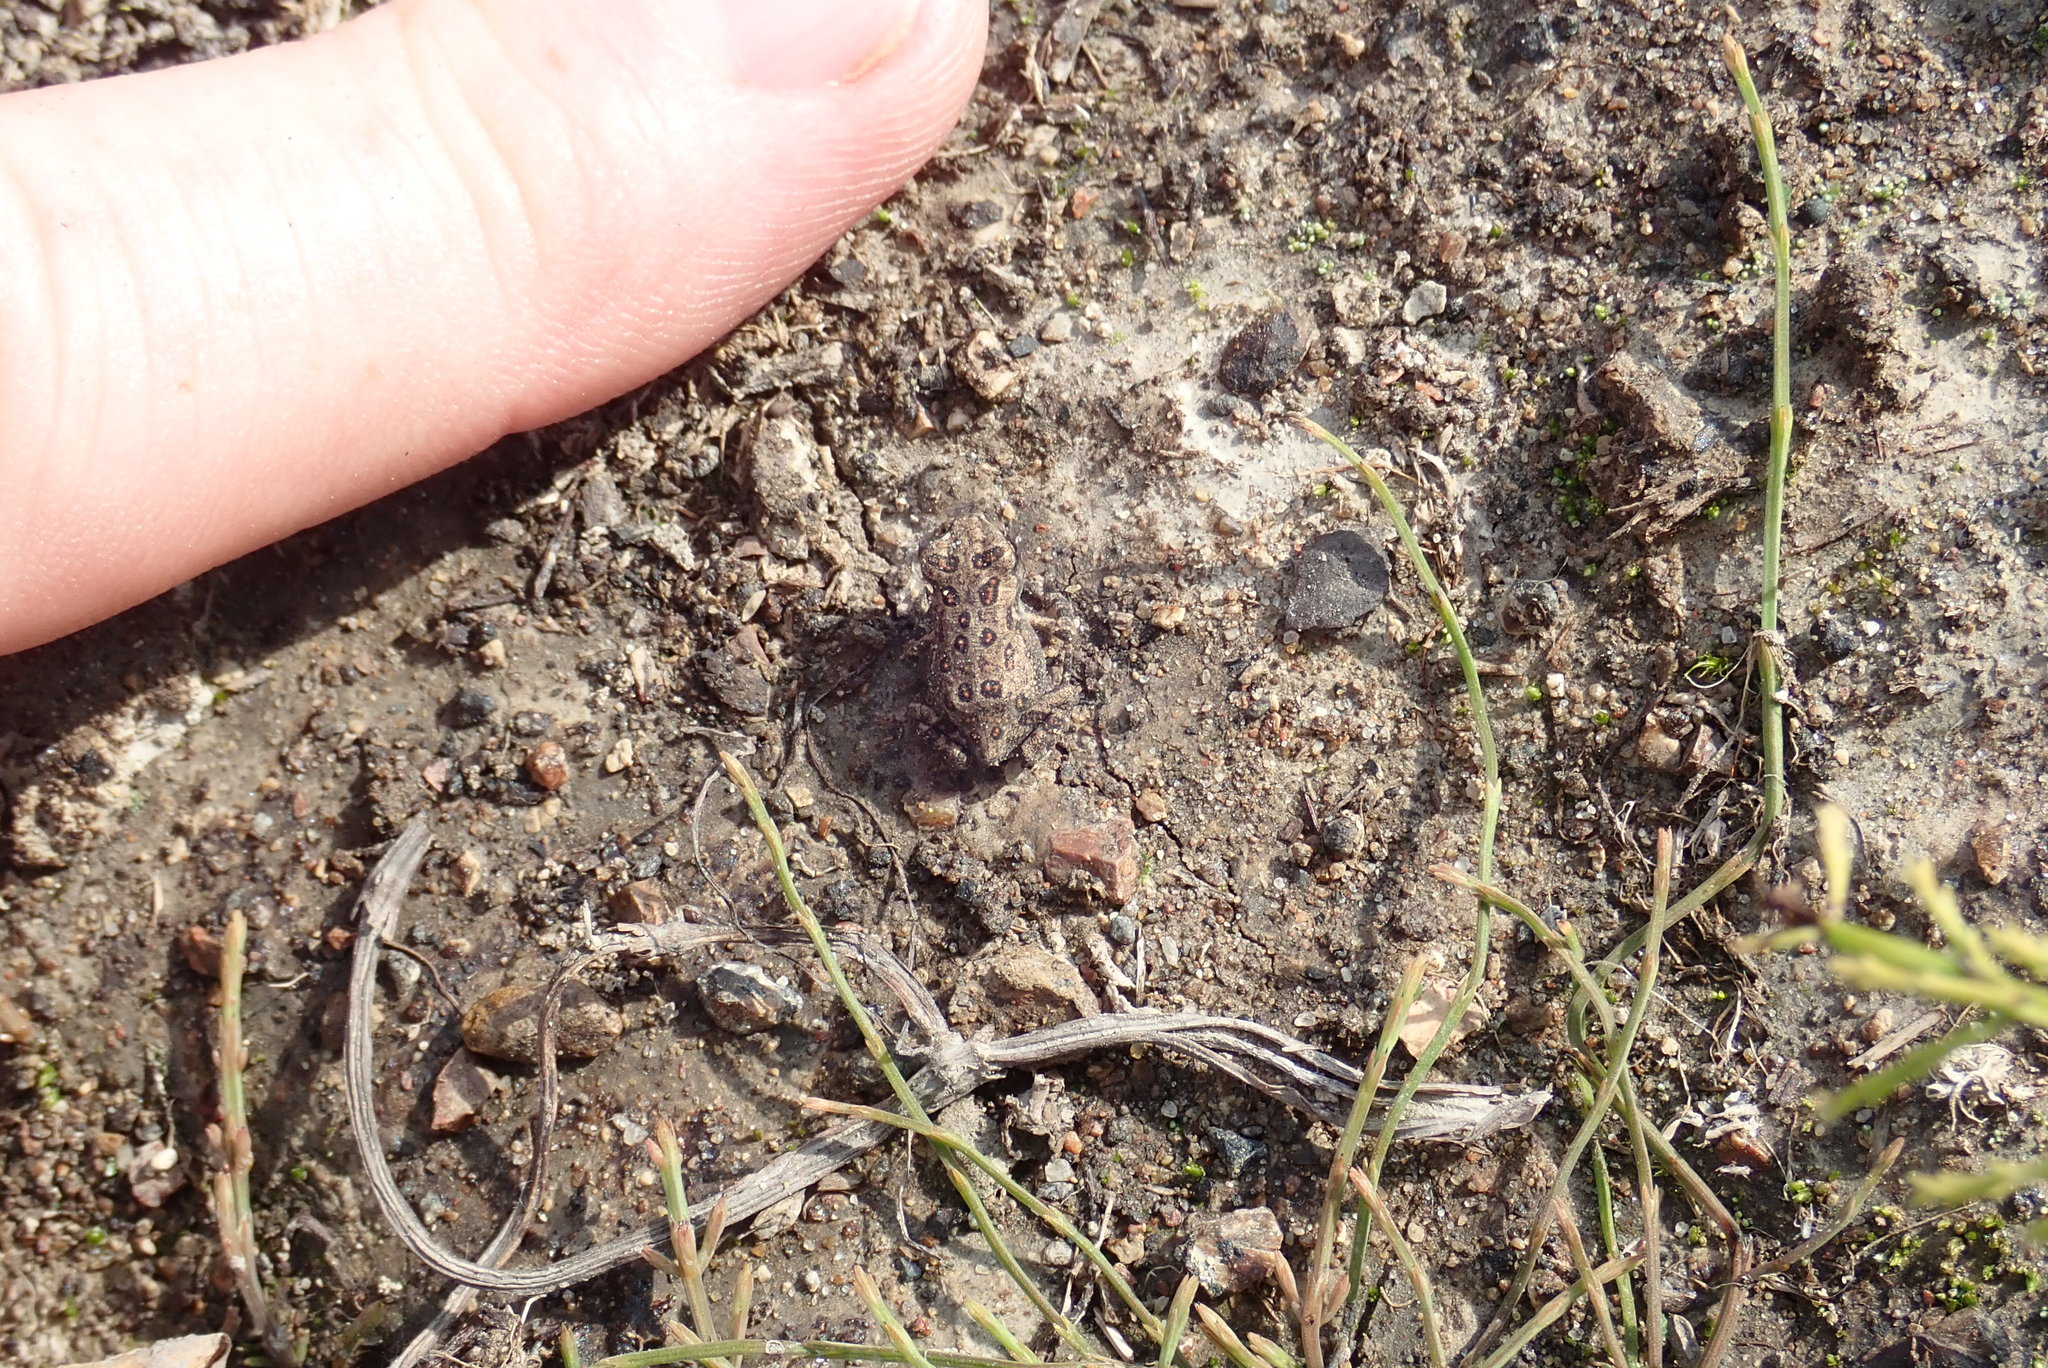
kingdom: Animalia
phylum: Chordata
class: Amphibia
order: Anura
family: Bufonidae
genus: Anaxyrus
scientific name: Anaxyrus americanus
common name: American toad
